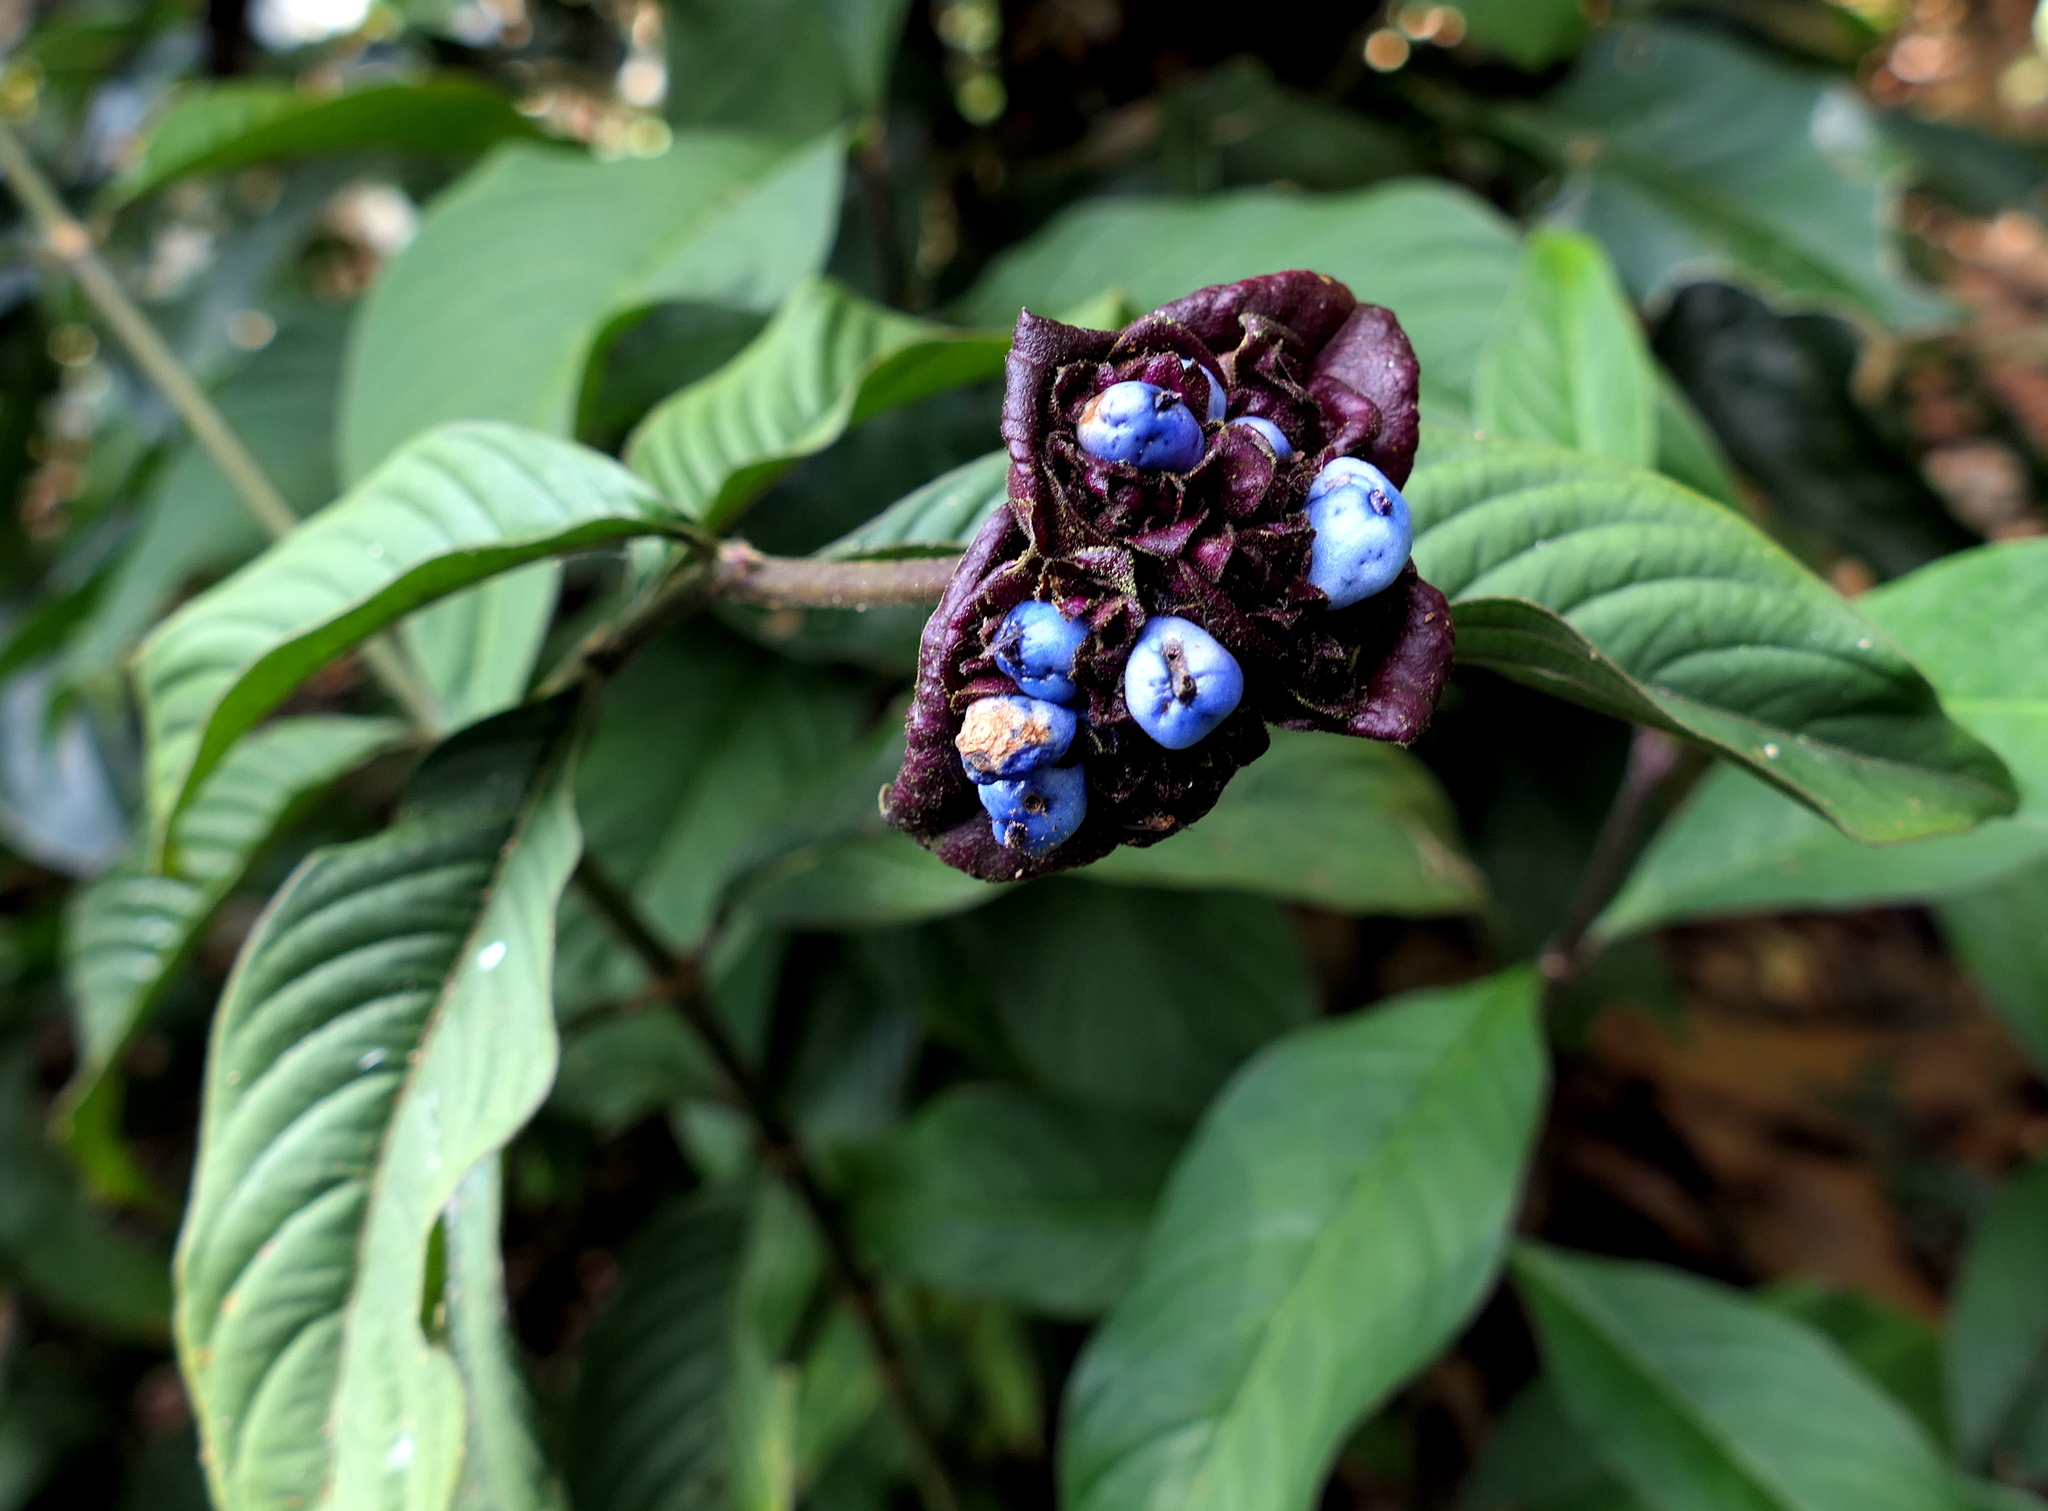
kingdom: Plantae
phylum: Tracheophyta
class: Magnoliopsida
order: Gentianales
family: Rubiaceae
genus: Palicourea
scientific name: Palicourea colorata
